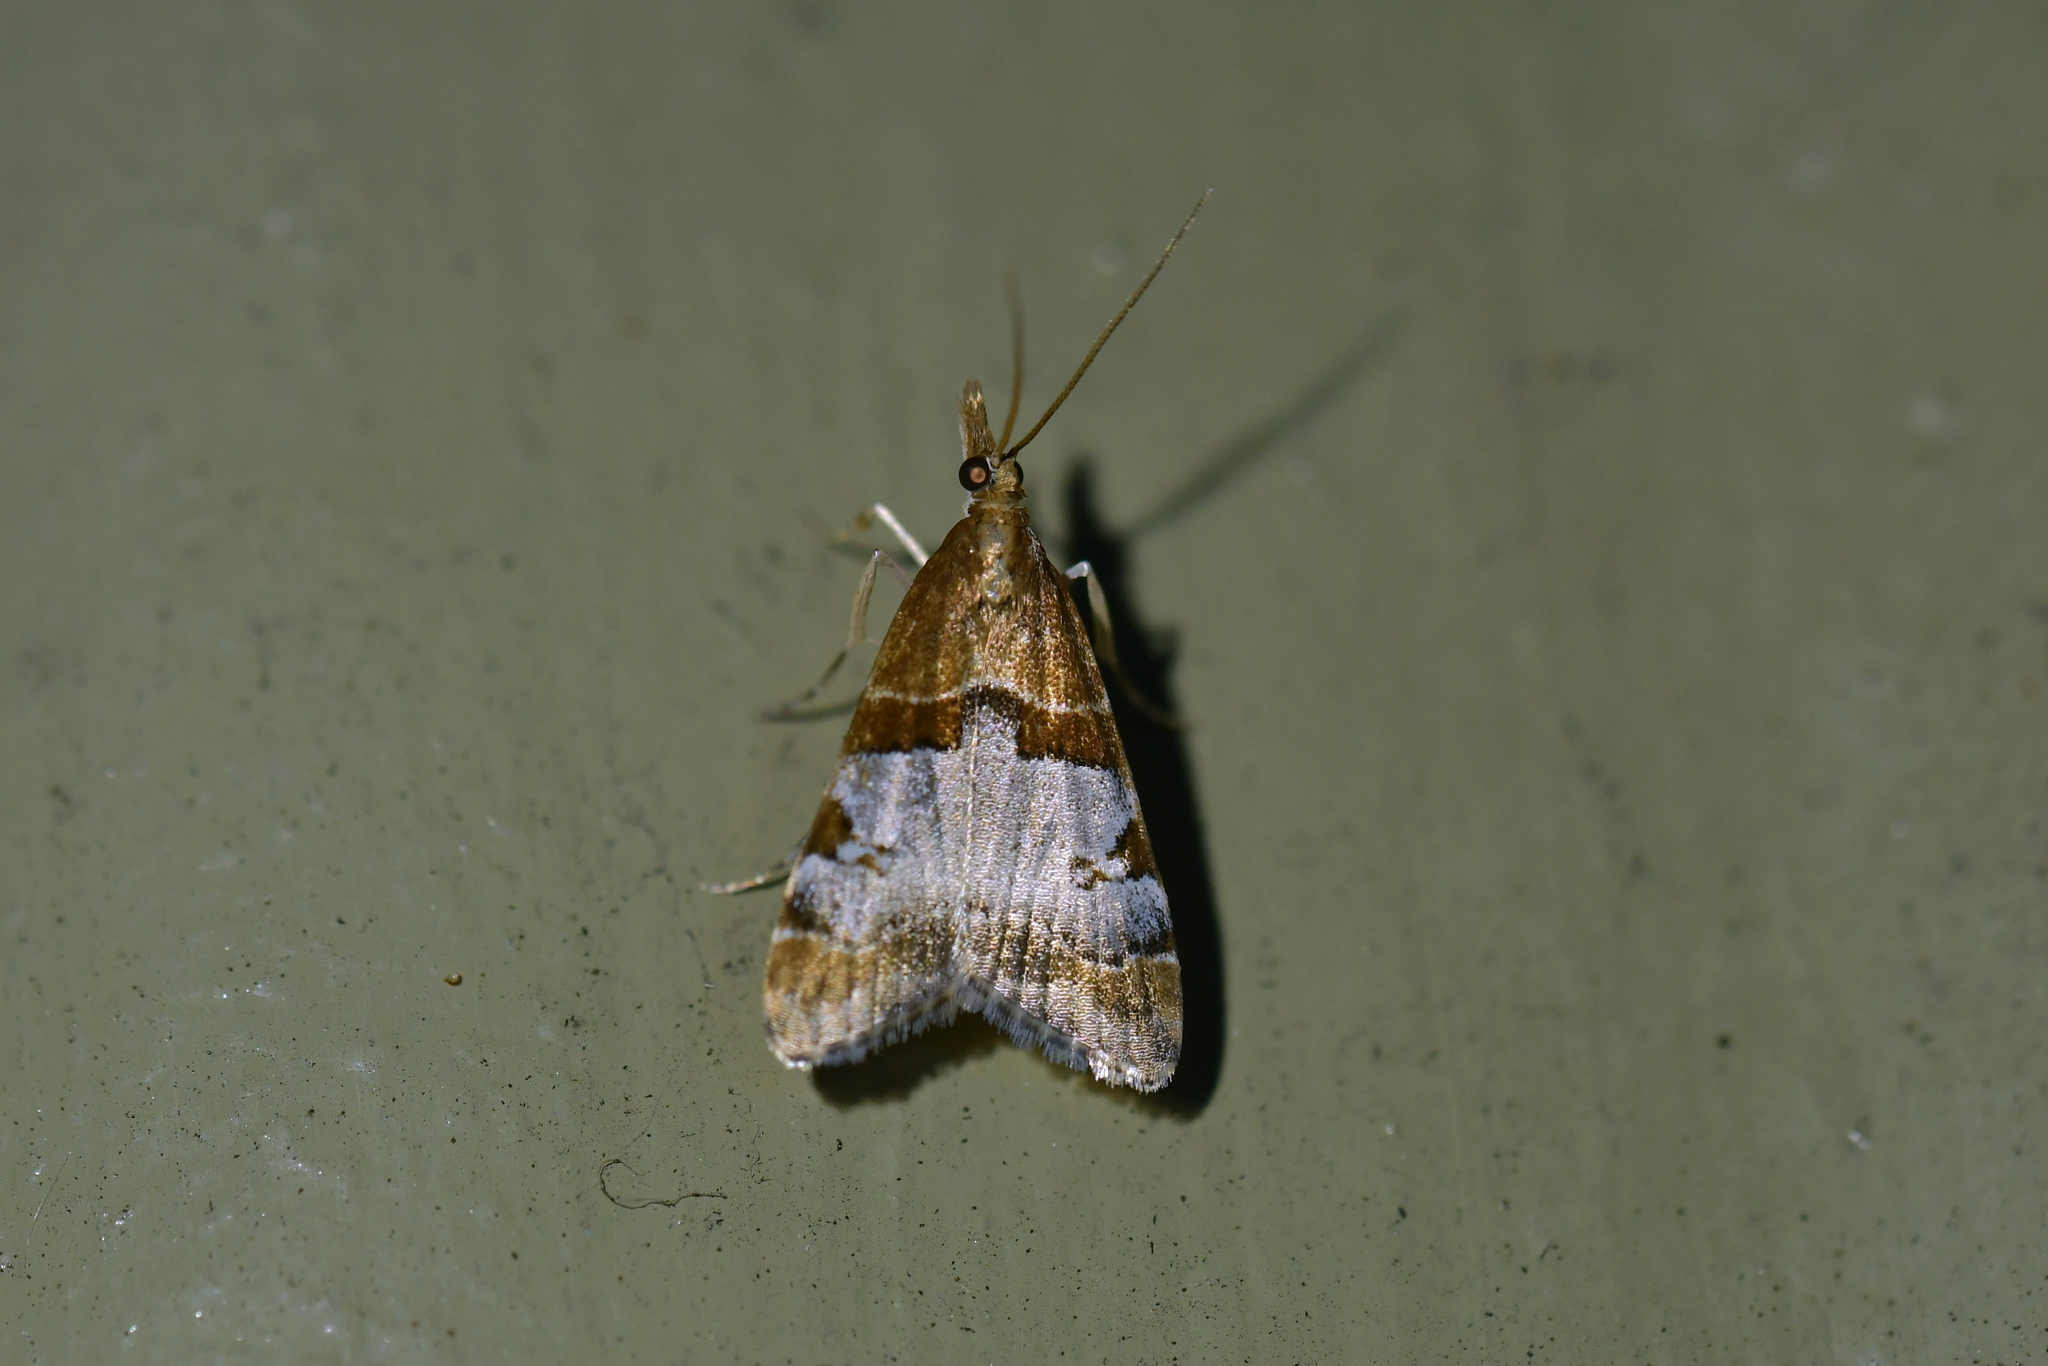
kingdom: Animalia
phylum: Arthropoda
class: Insecta
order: Lepidoptera
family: Crambidae
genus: Antiscopa
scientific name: Antiscopa epicomia
